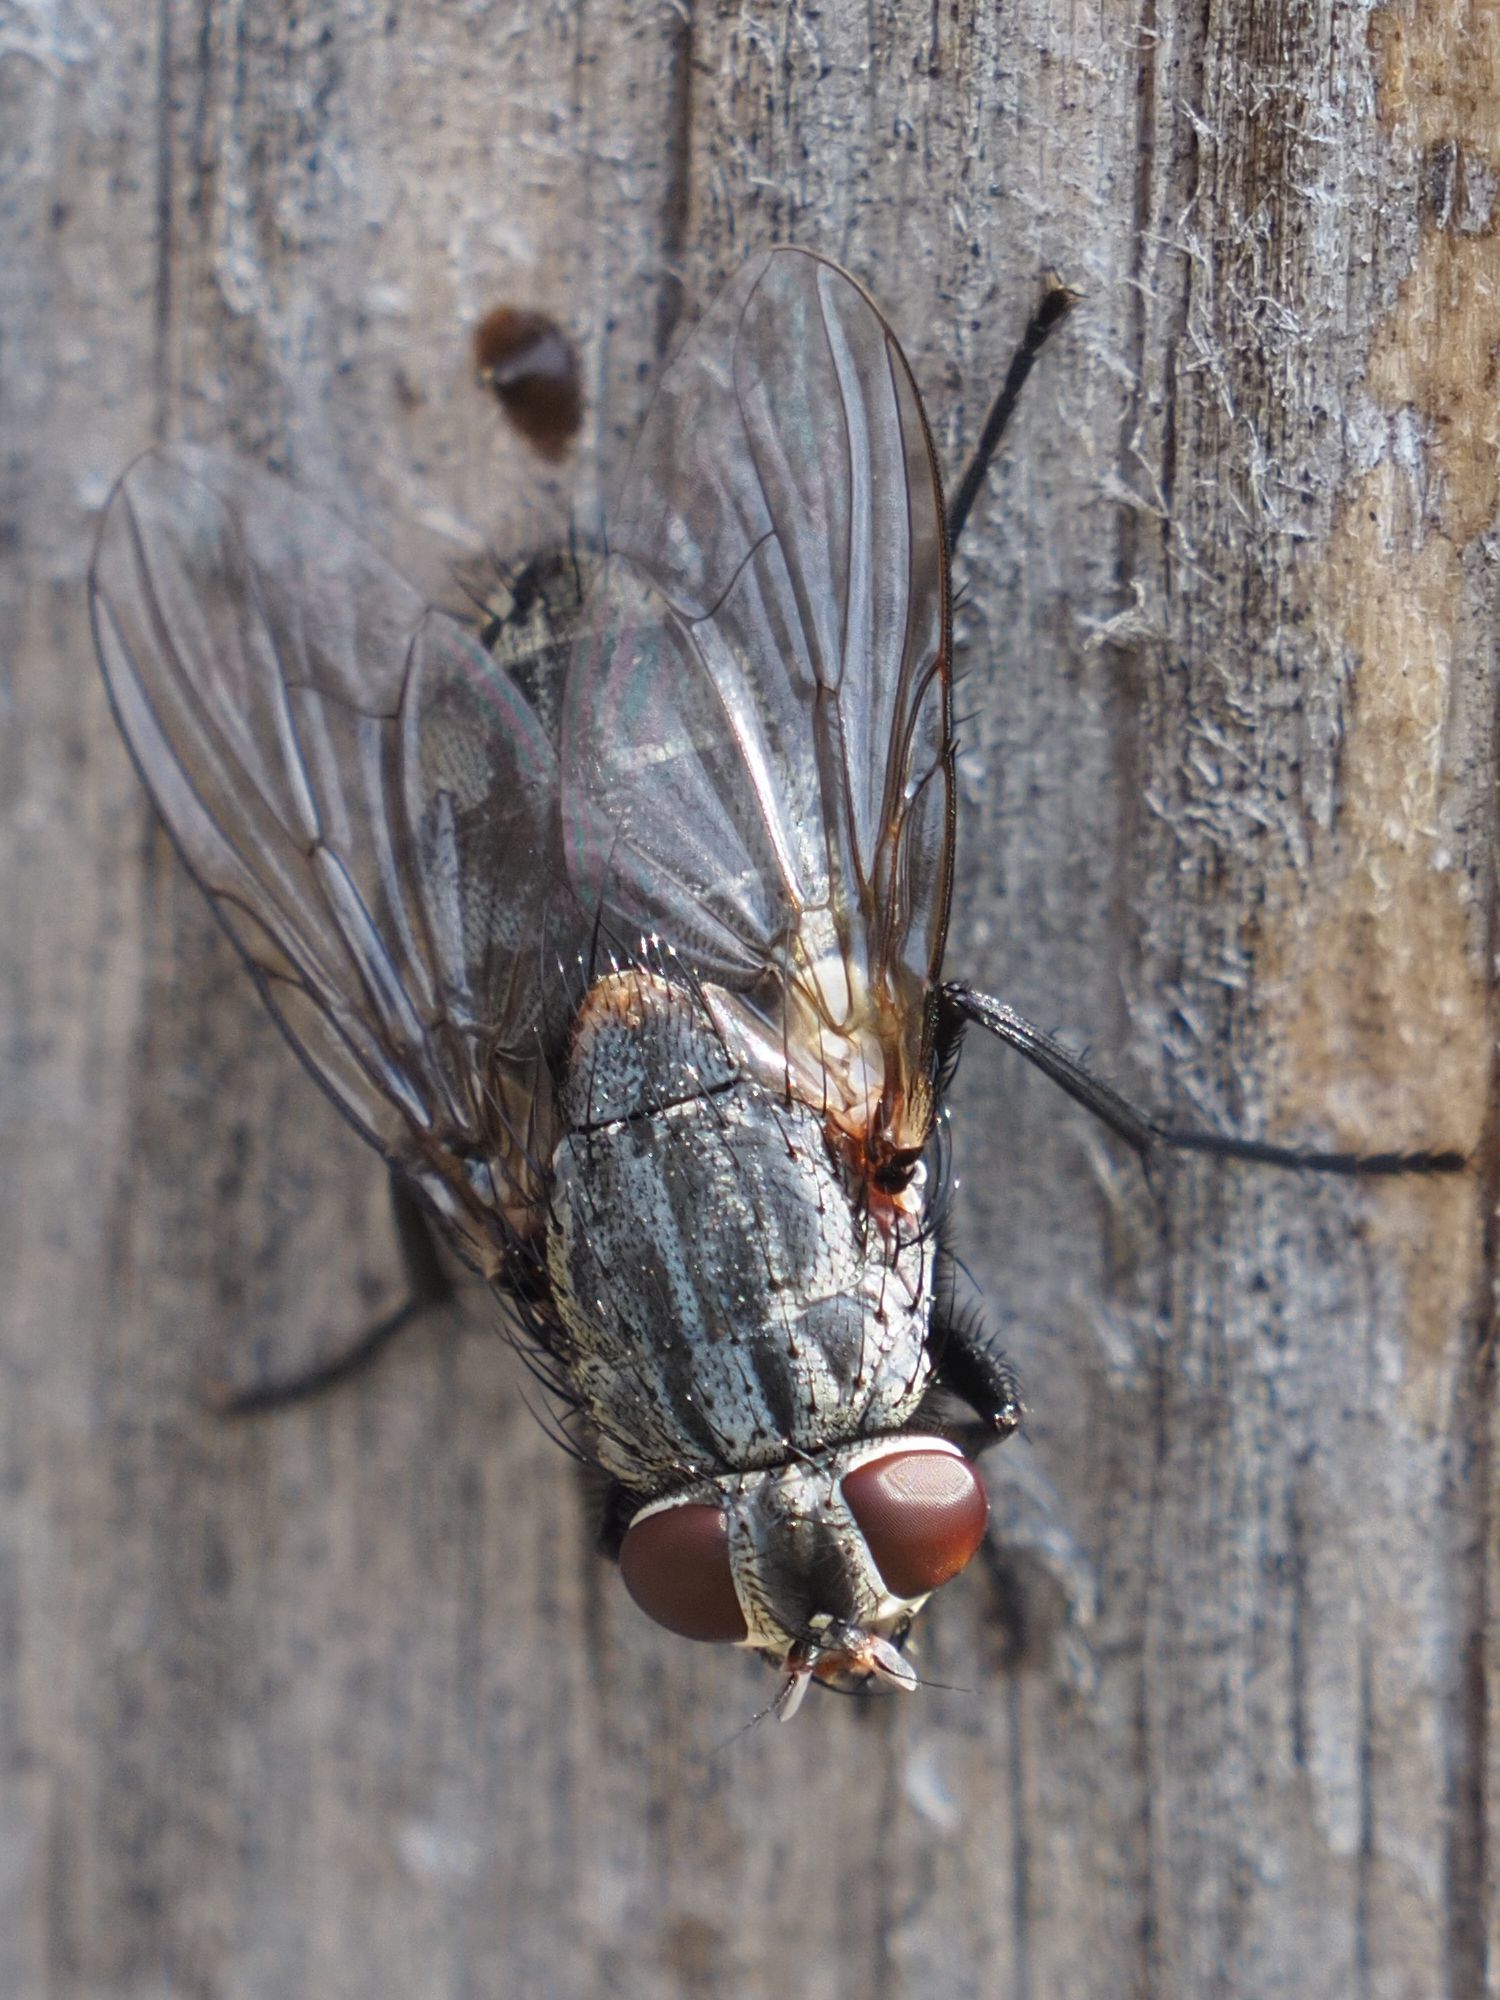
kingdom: Animalia
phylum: Arthropoda
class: Insecta
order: Diptera
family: Muscidae
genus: Muscina
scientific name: Muscina prolapsa
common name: Muscoid fly
